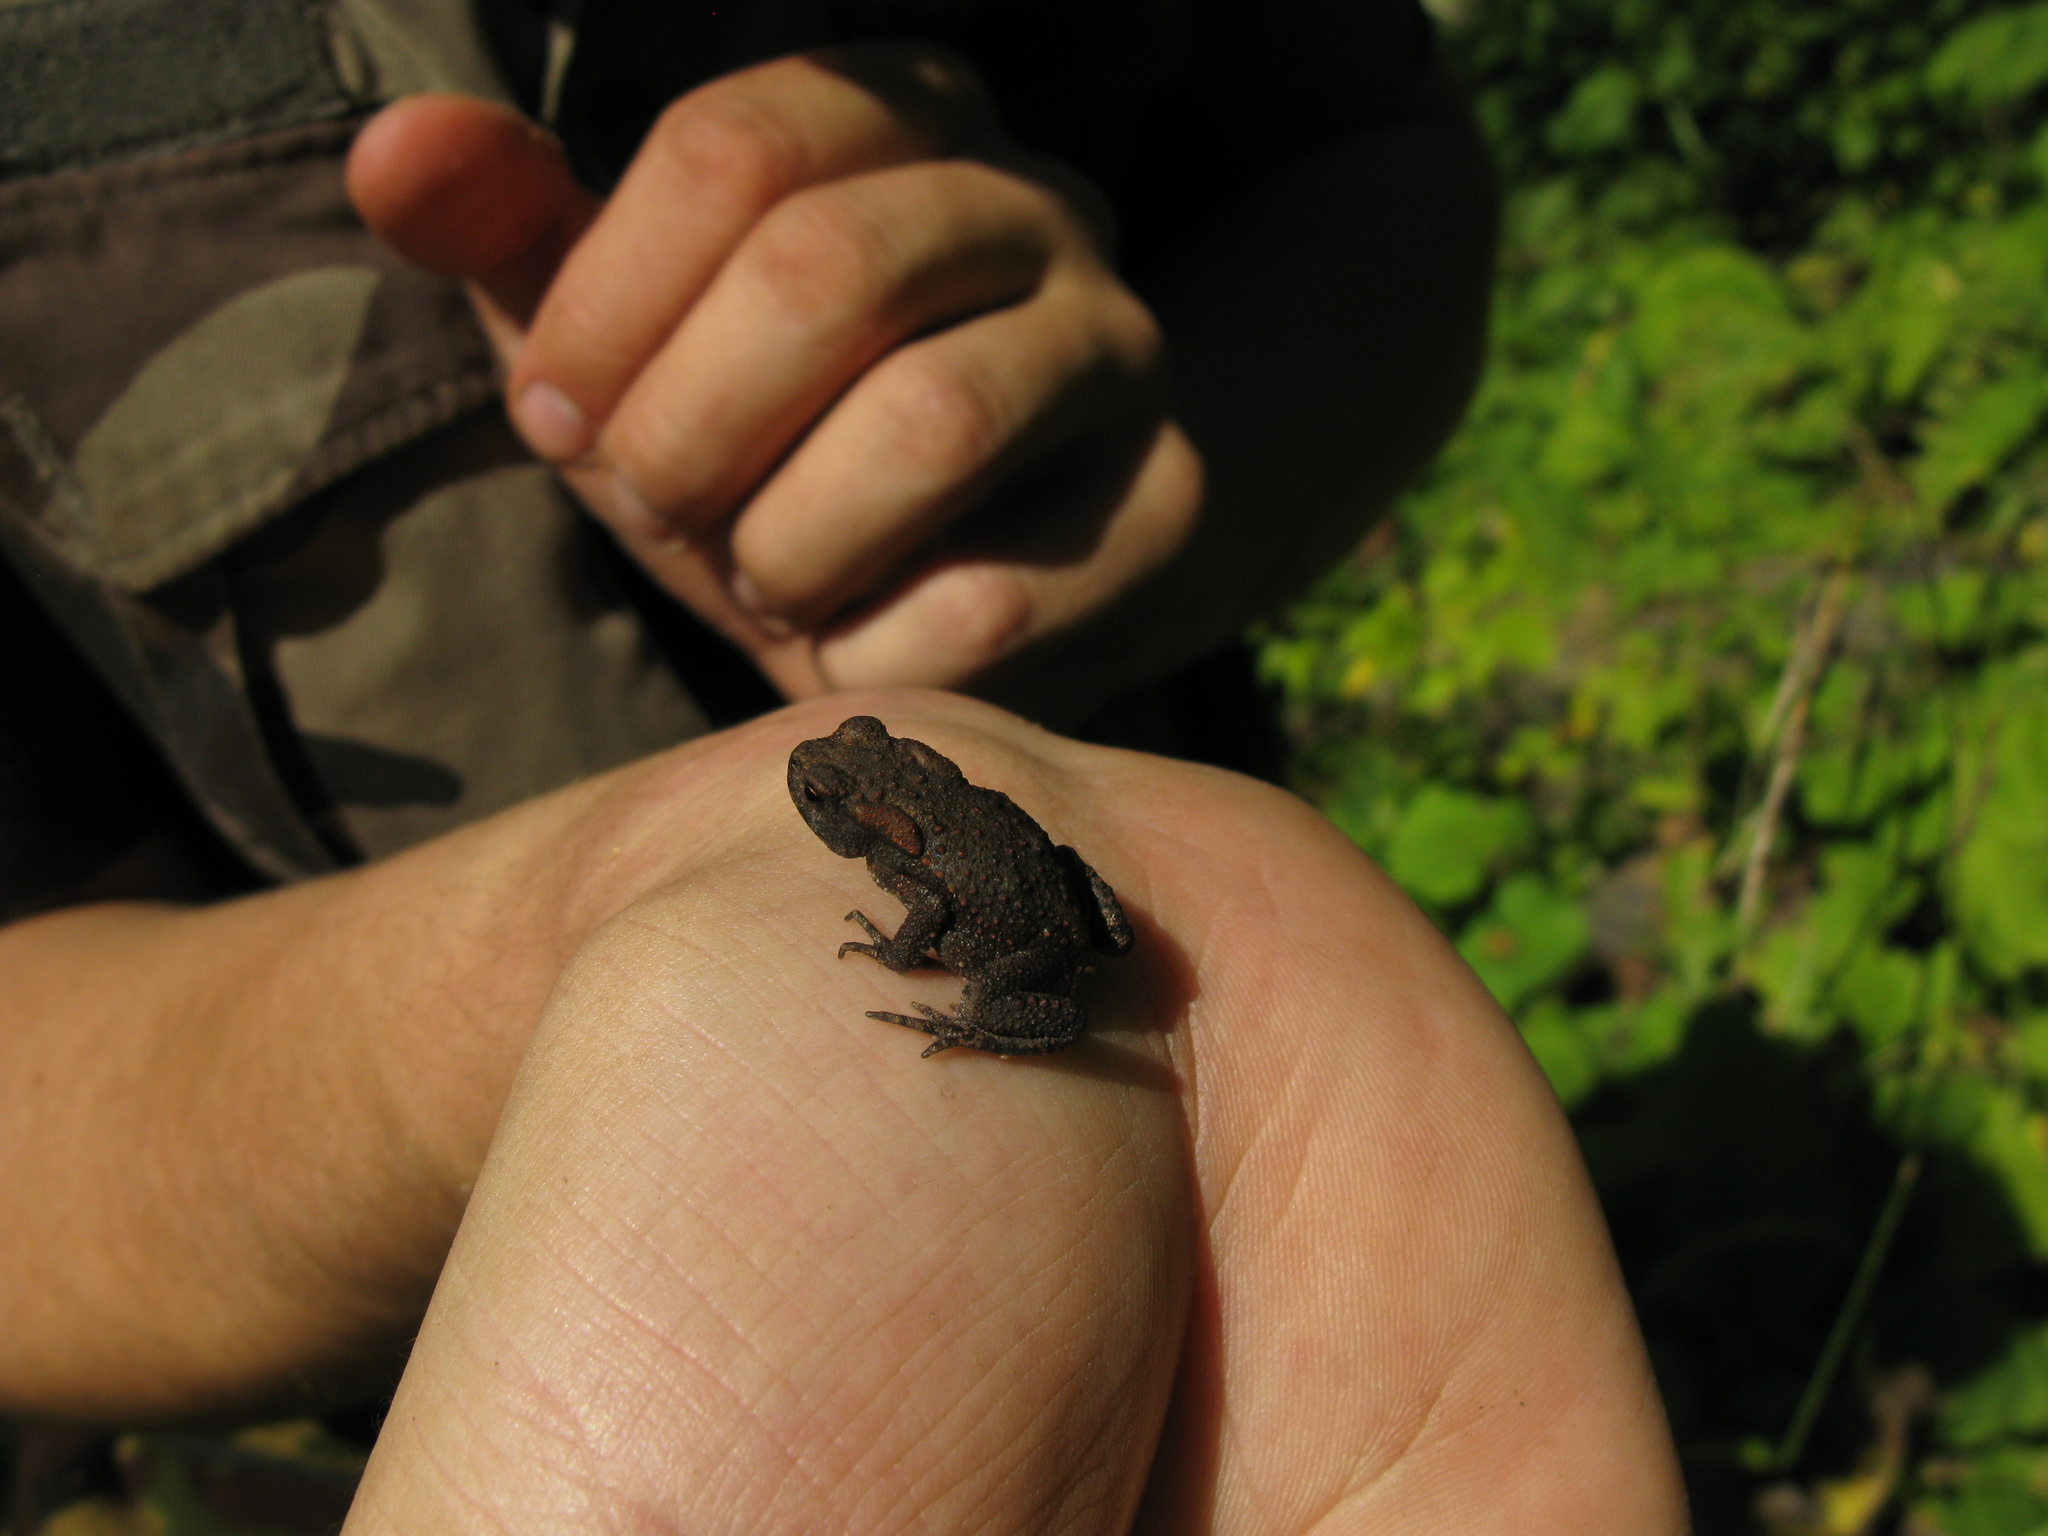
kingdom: Animalia
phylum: Chordata
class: Amphibia
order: Anura
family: Bufonidae
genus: Bufo
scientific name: Bufo bufo
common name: Common toad
